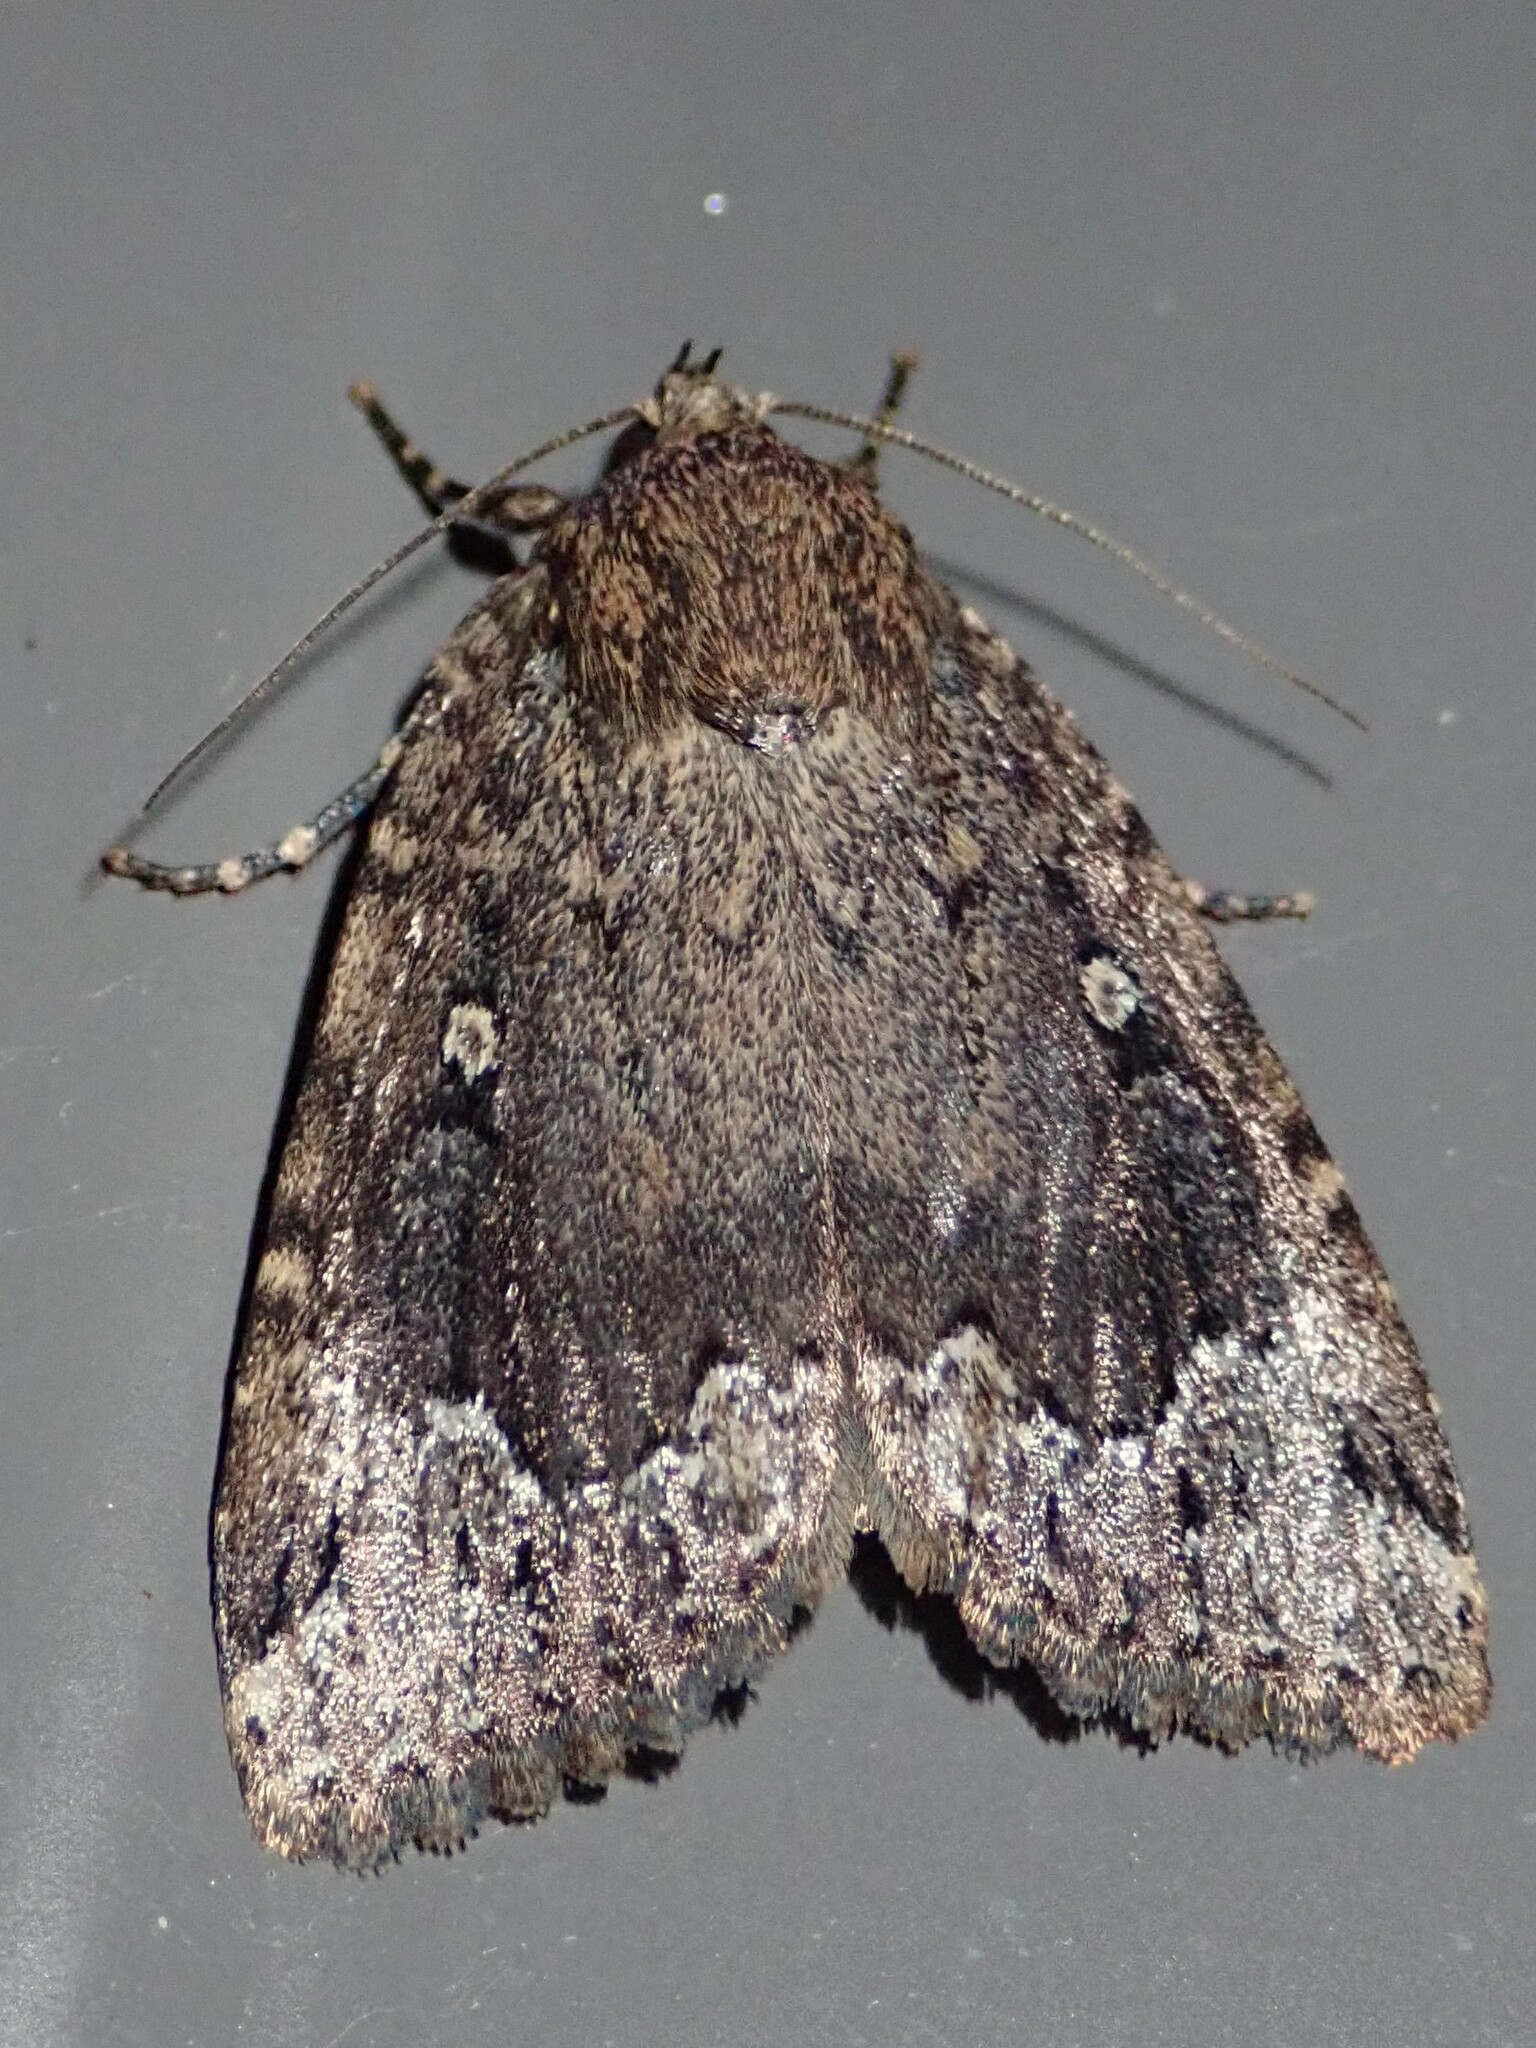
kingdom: Animalia
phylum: Arthropoda
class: Insecta
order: Lepidoptera
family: Noctuidae
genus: Amphipyra
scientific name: Amphipyra pyramidoides
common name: American copper underwing
